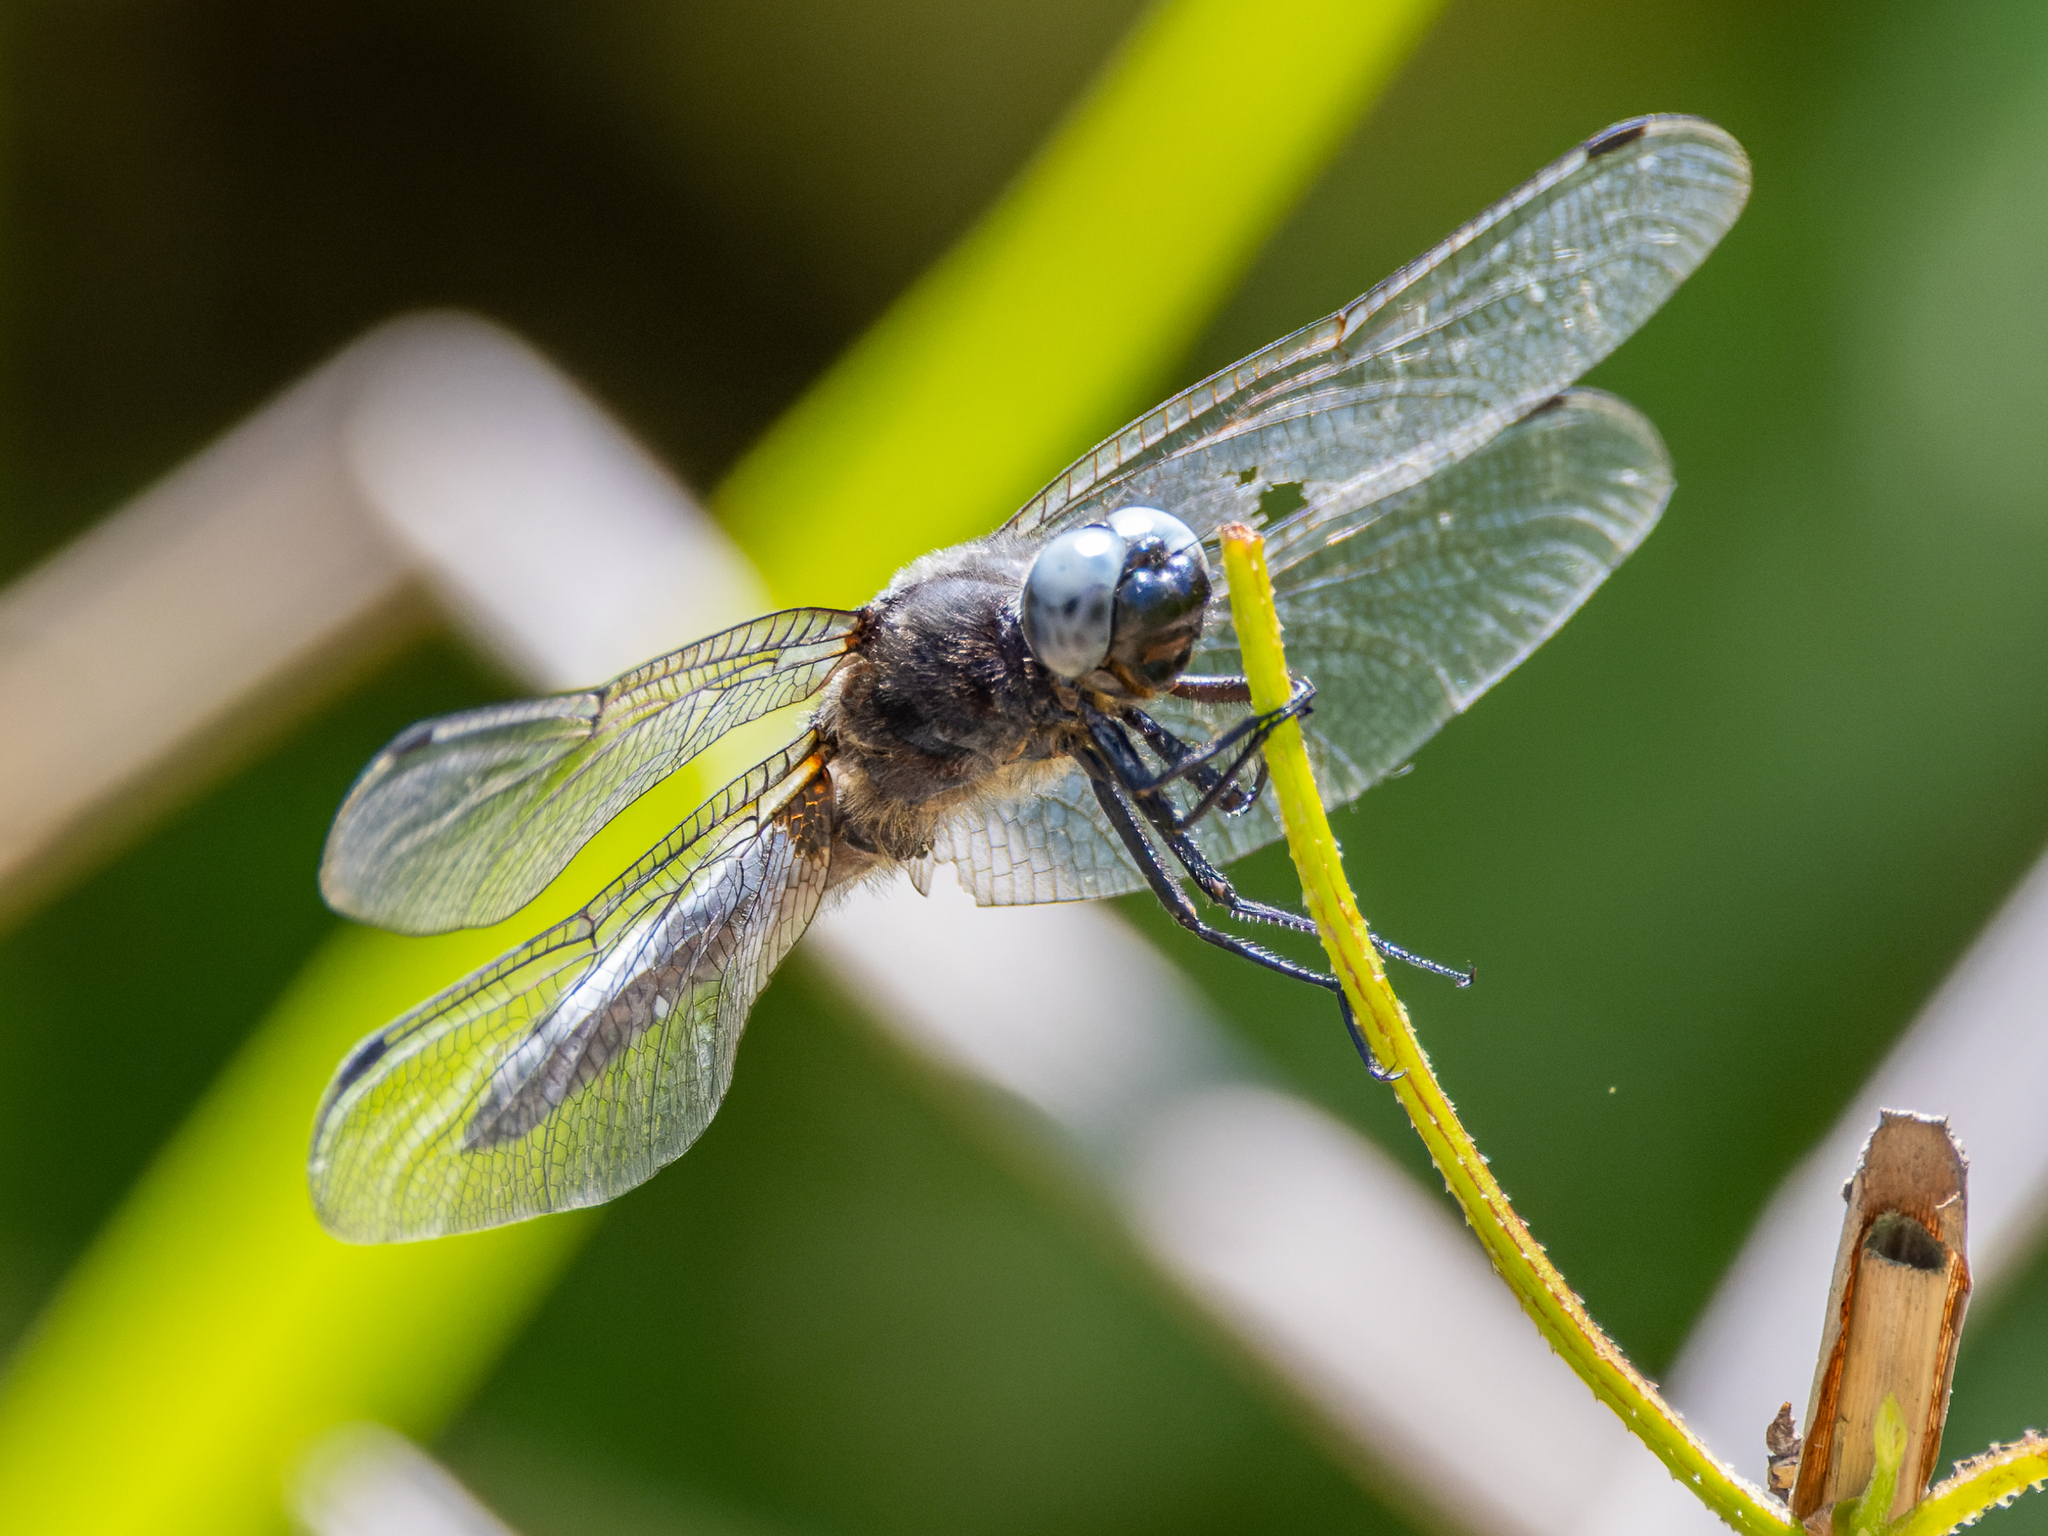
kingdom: Animalia
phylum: Arthropoda
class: Insecta
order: Odonata
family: Libellulidae
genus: Libellula
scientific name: Libellula fulva
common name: Blue chaser
